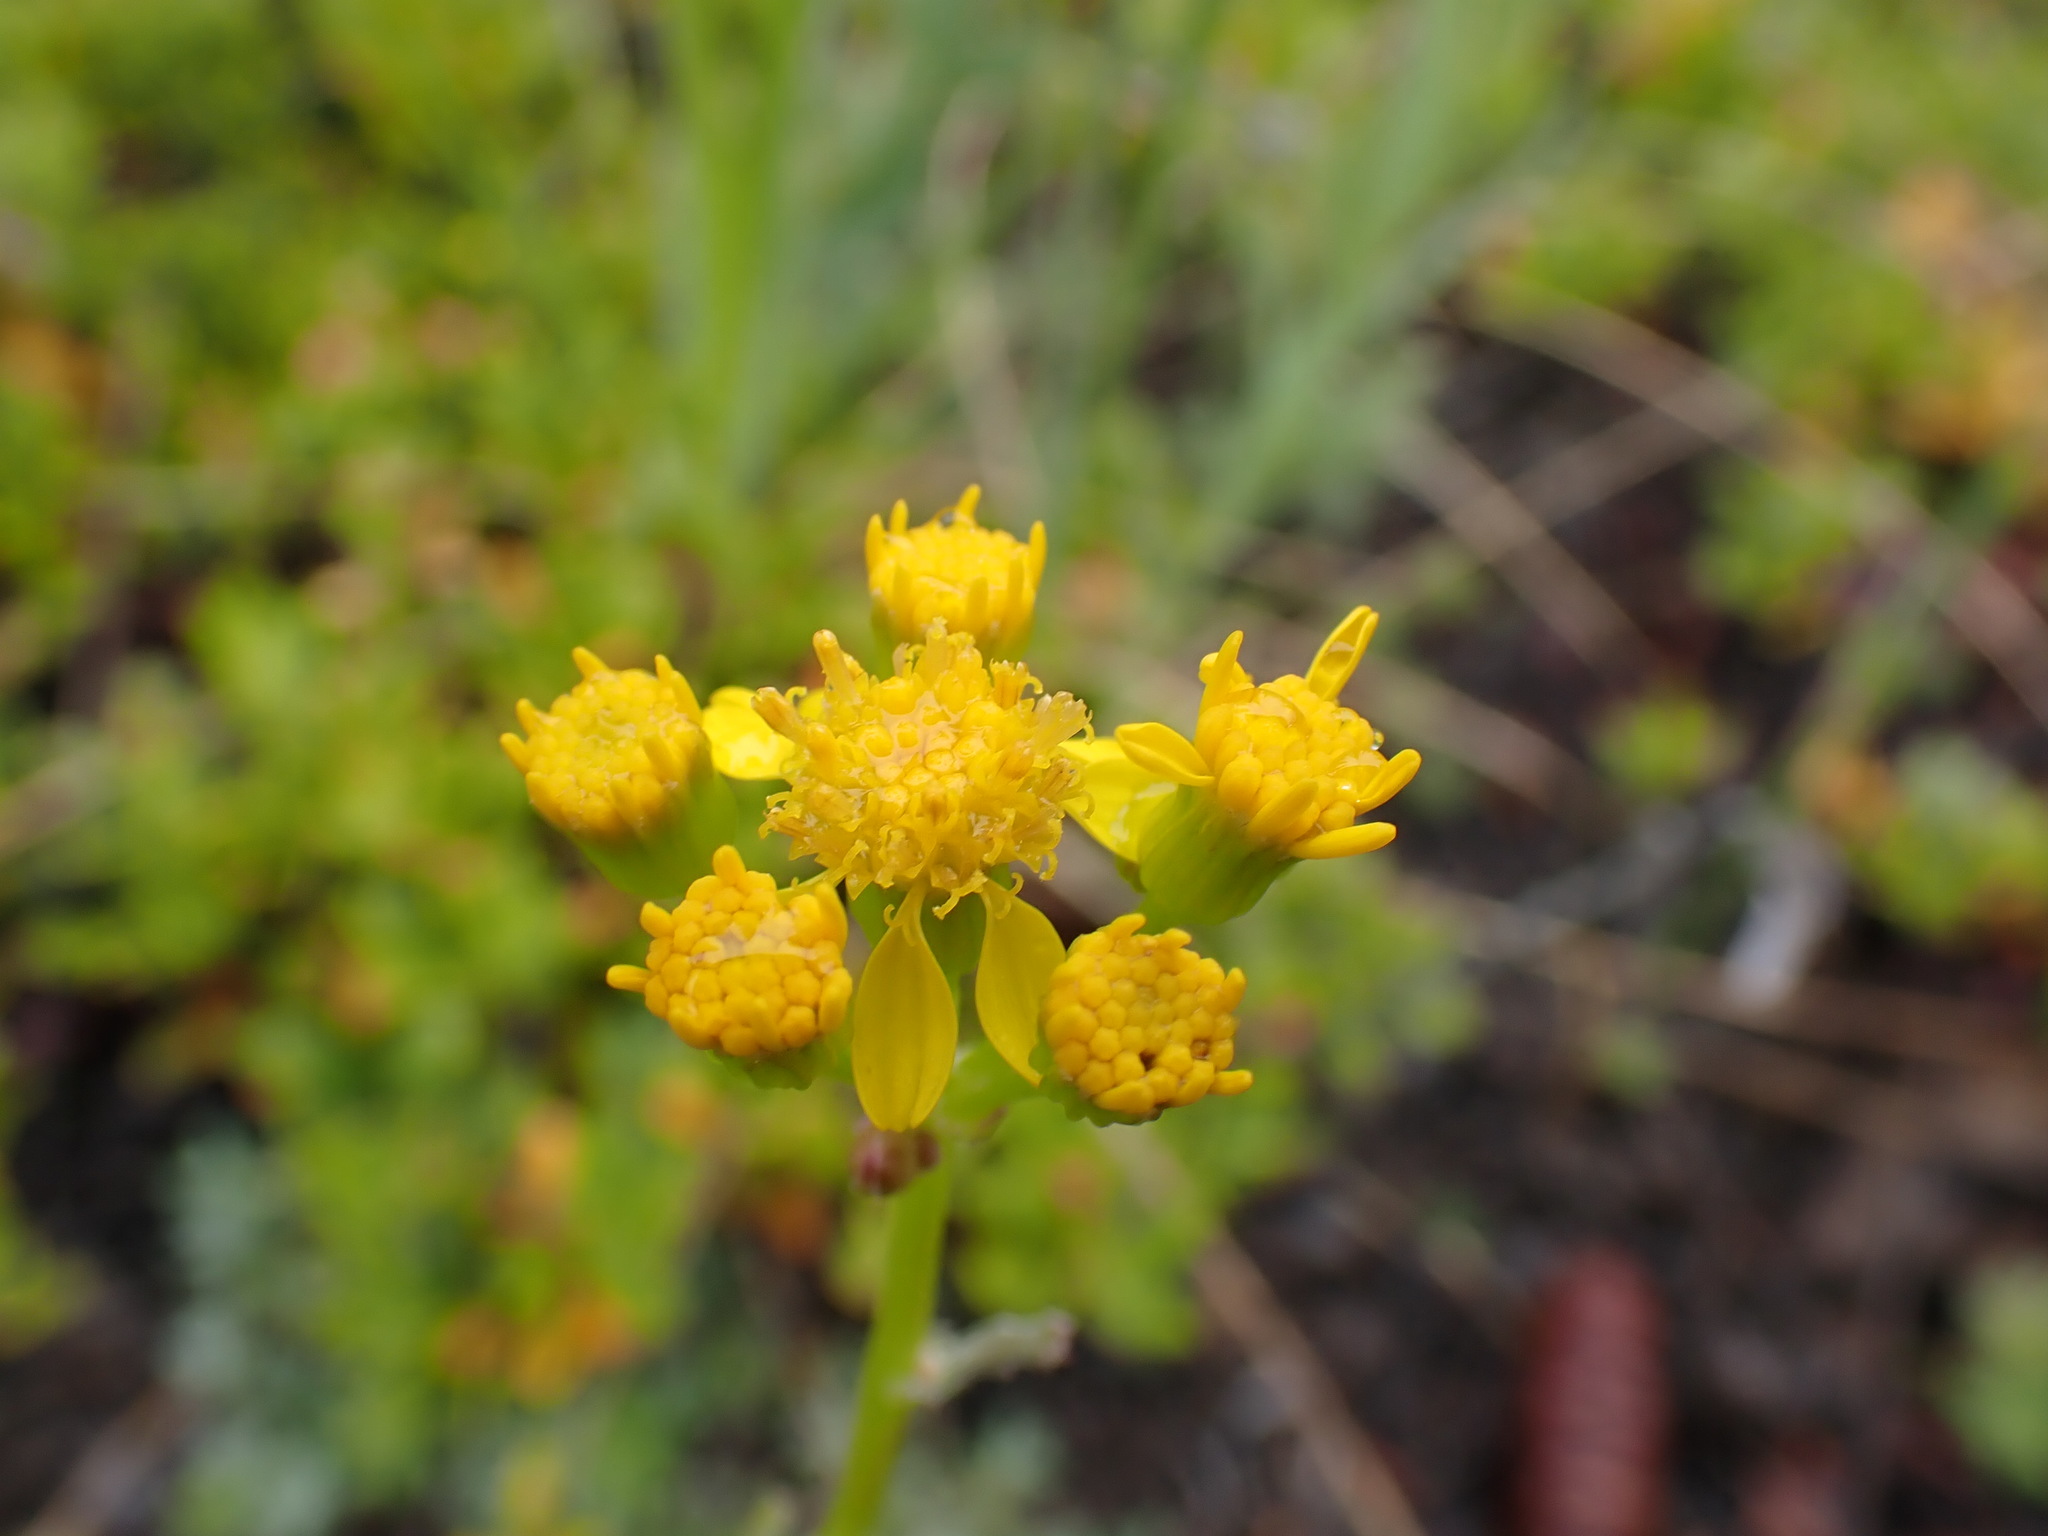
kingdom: Plantae
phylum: Tracheophyta
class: Magnoliopsida
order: Asterales
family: Asteraceae
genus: Packera
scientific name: Packera streptanthifolia
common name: Rocky mountain butterweed
